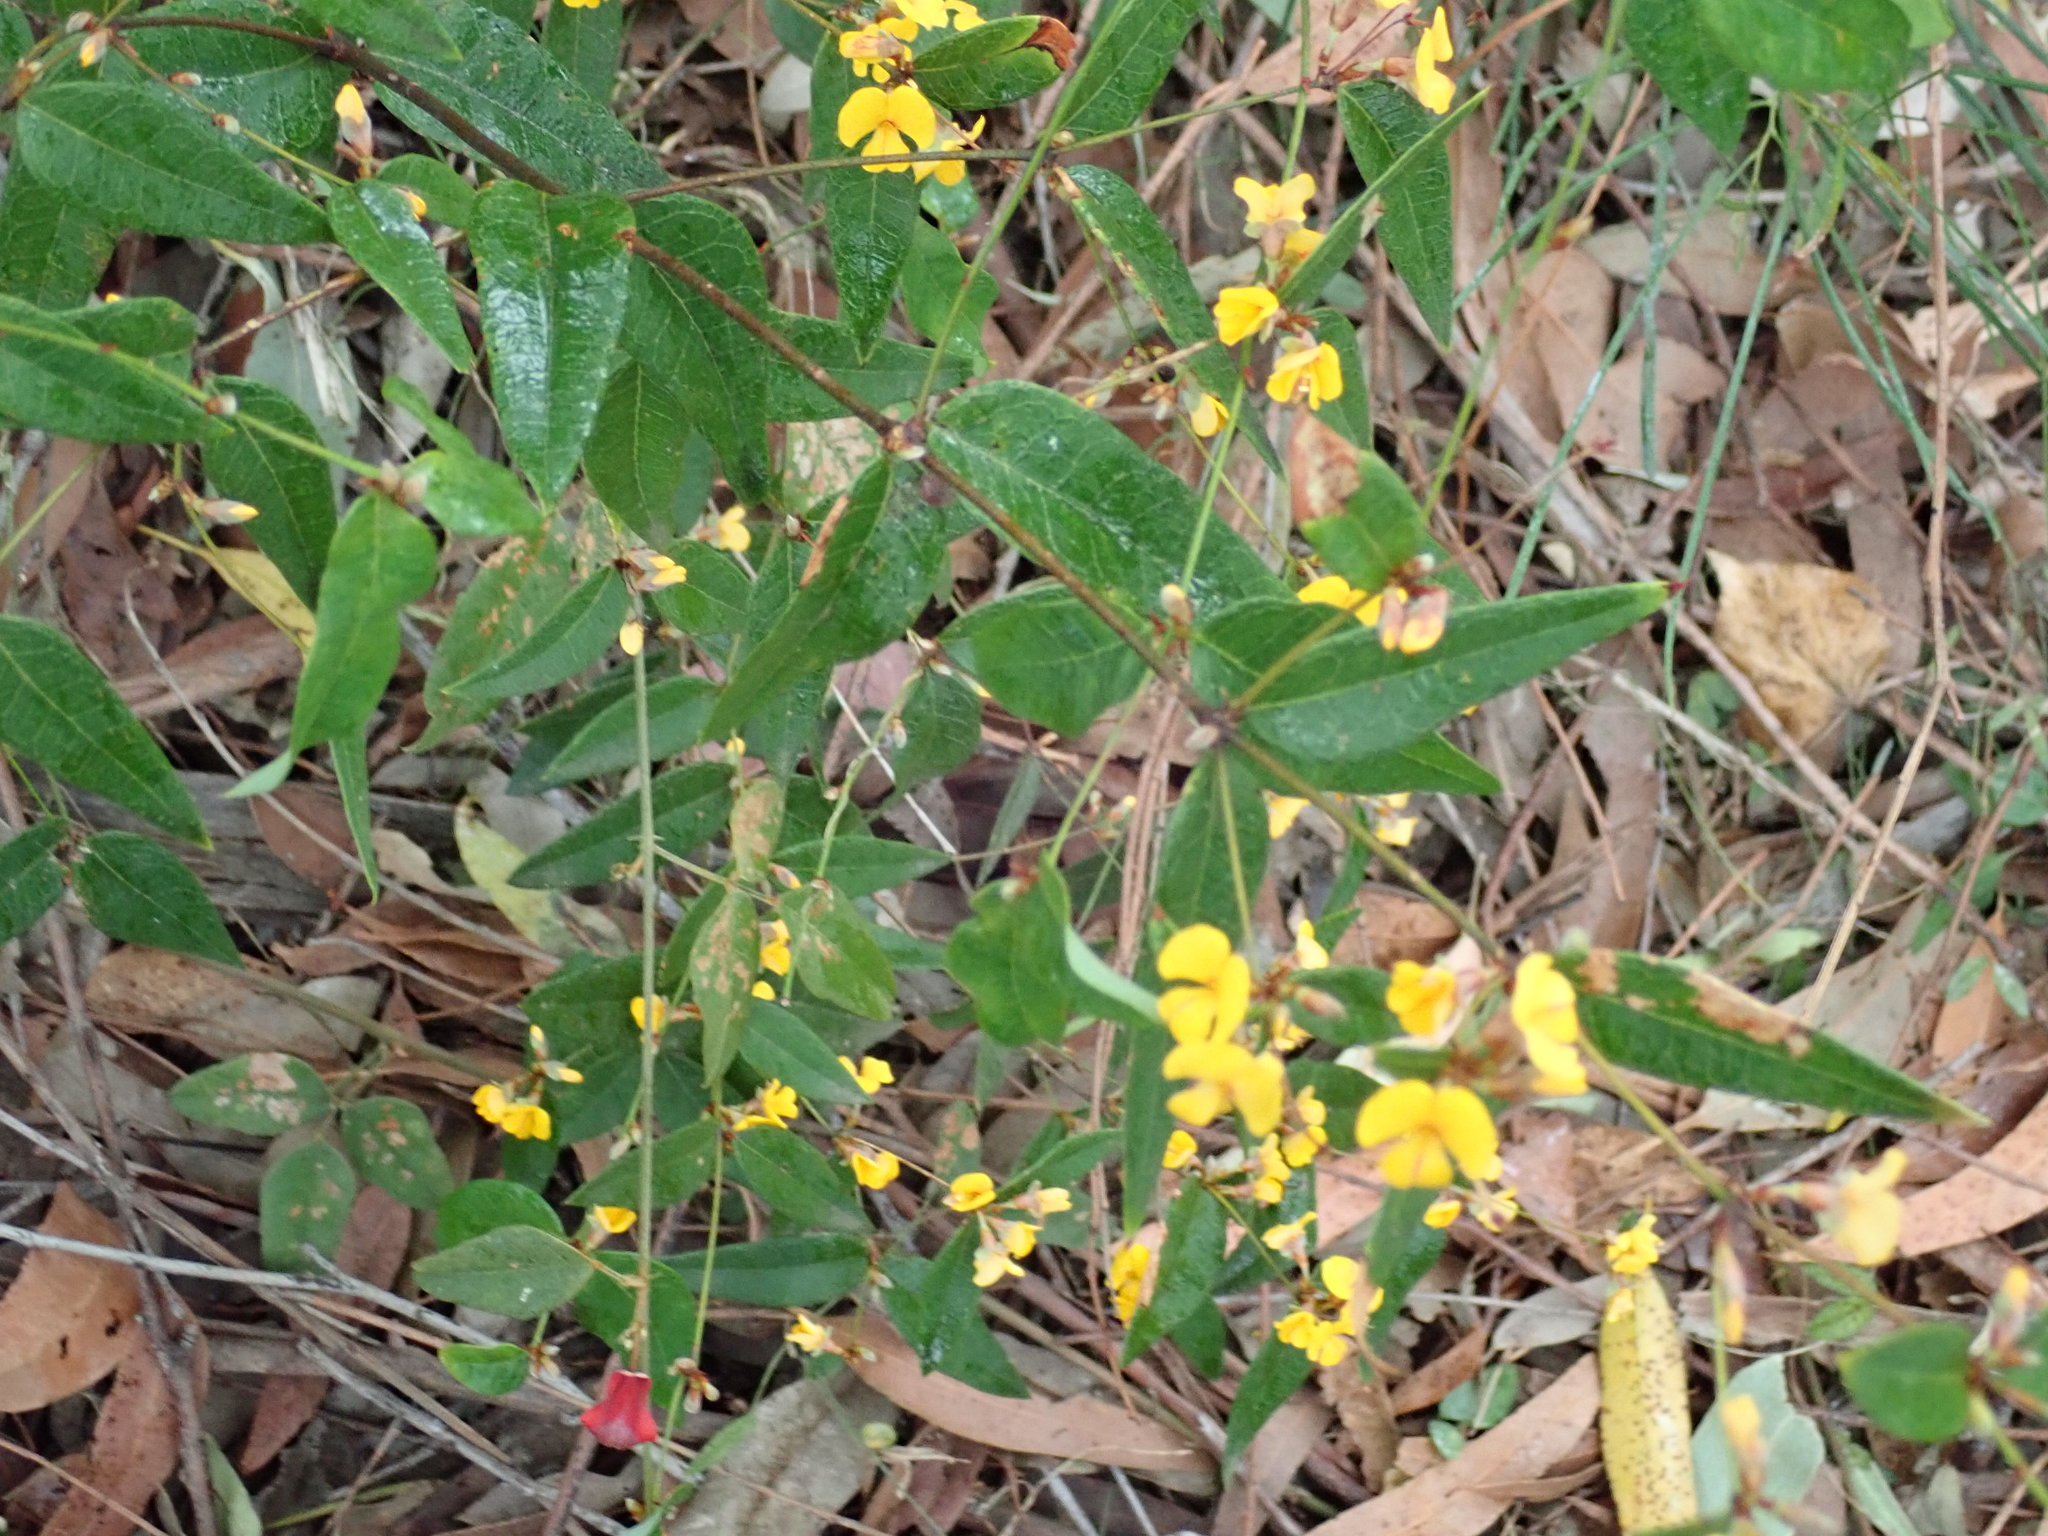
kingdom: Plantae
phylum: Tracheophyta
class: Magnoliopsida
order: Fabales
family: Fabaceae
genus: Platylobium
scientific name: Platylobium parviflorum
